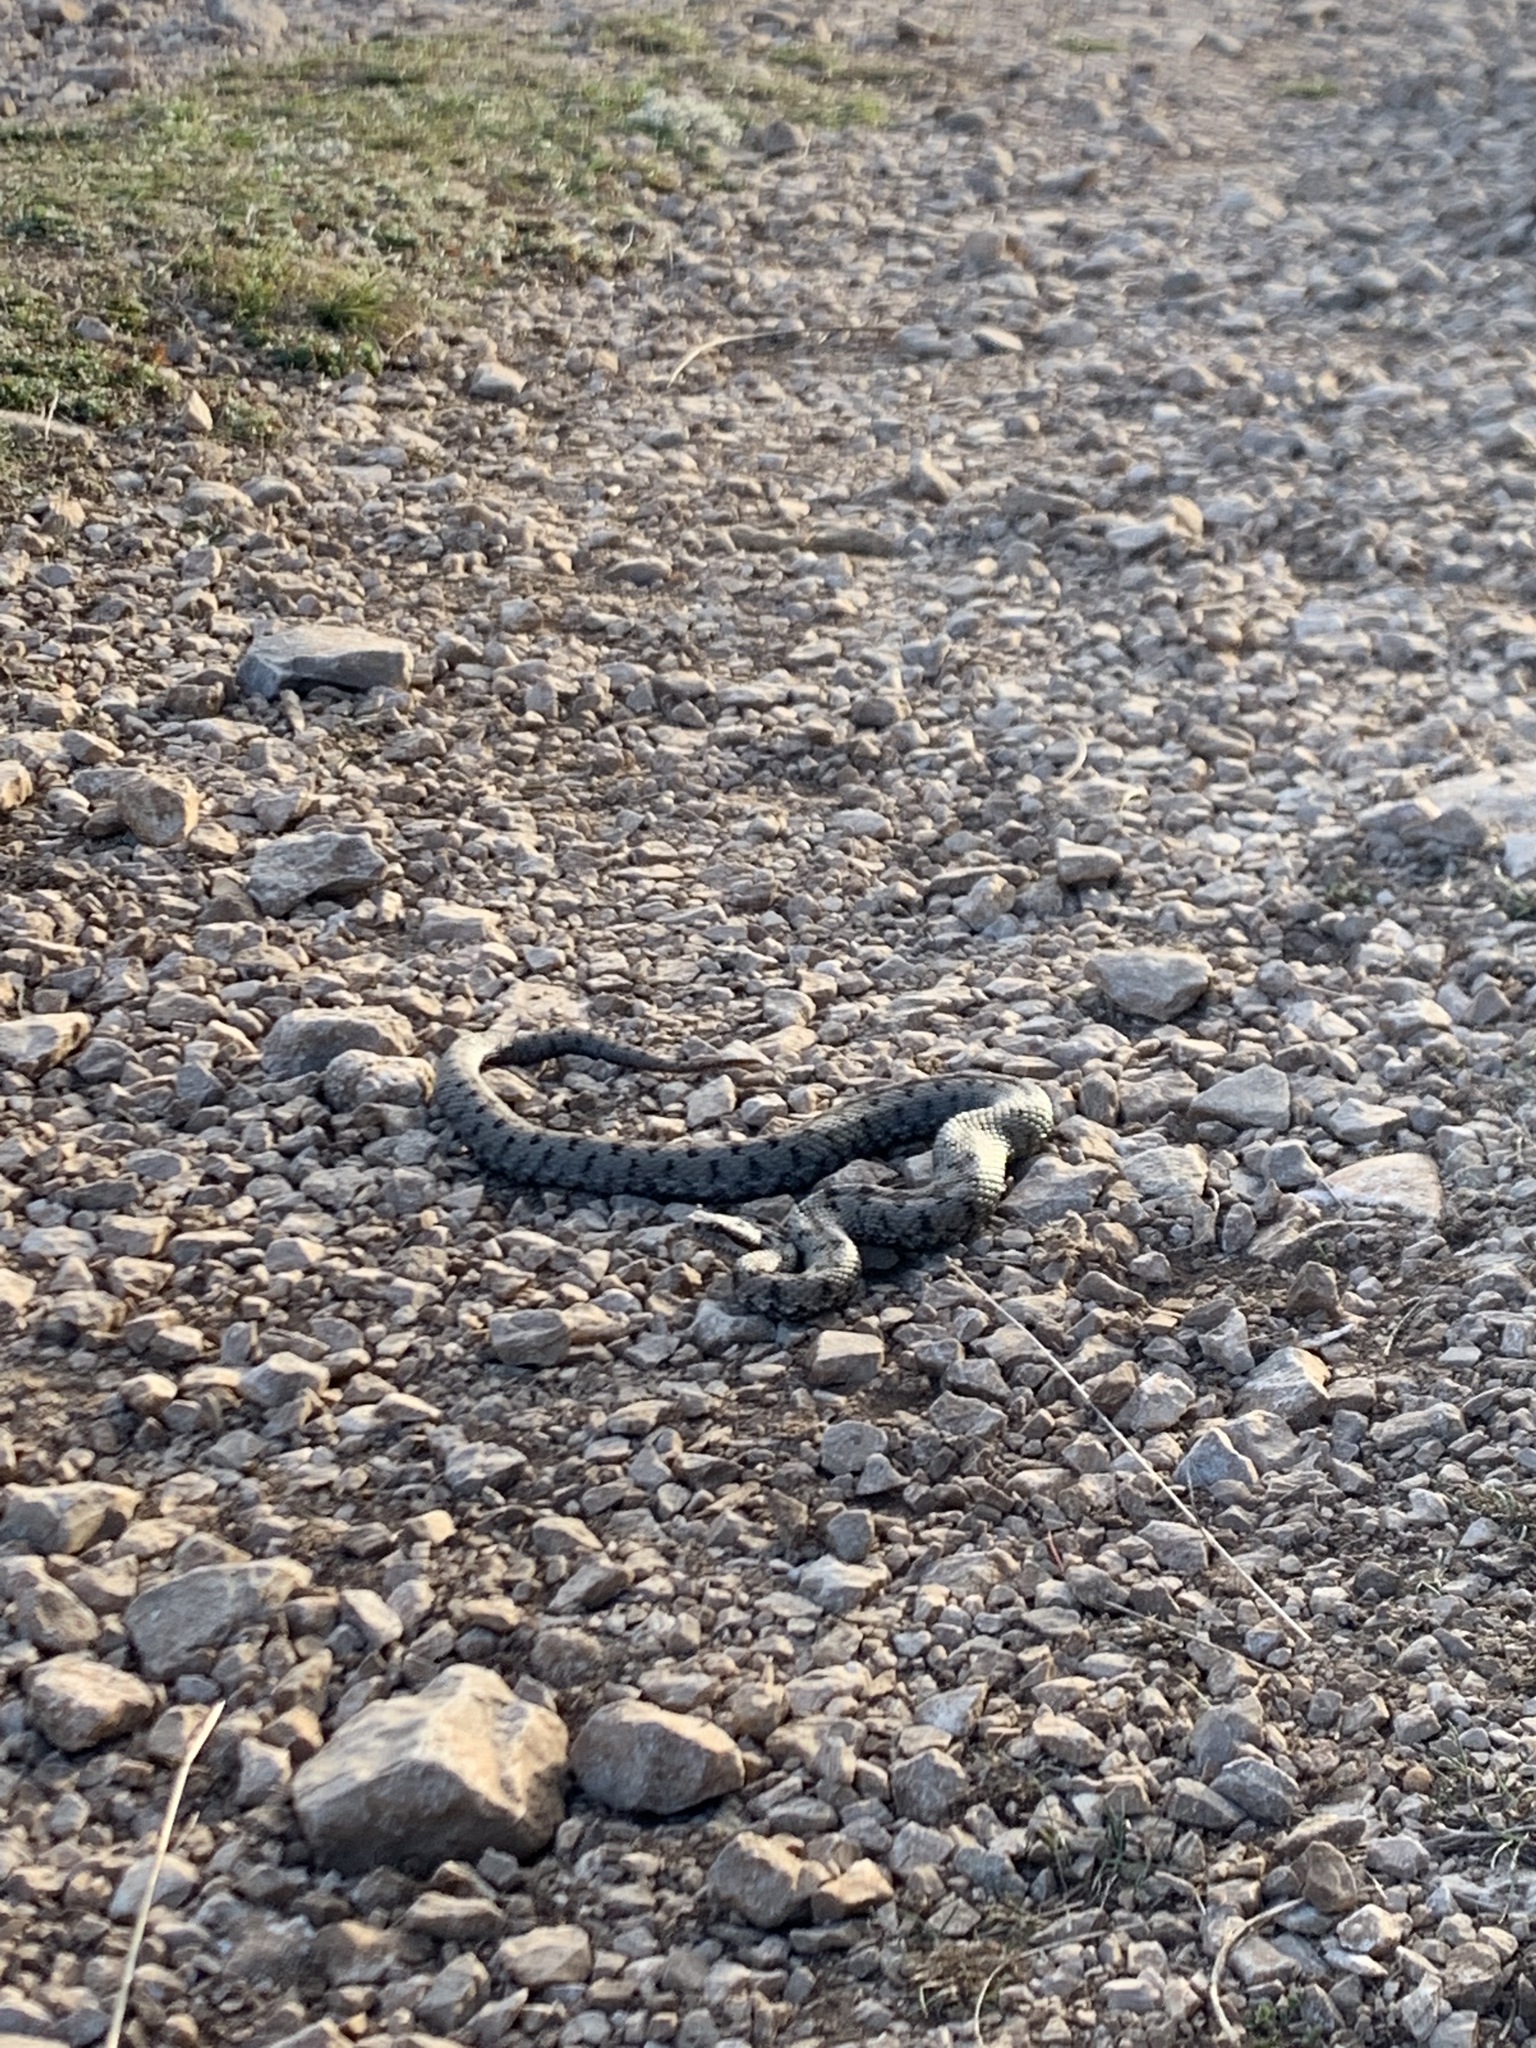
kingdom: Animalia
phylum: Chordata
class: Squamata
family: Viperidae
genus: Vipera
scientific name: Vipera aspis
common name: Asp viper
